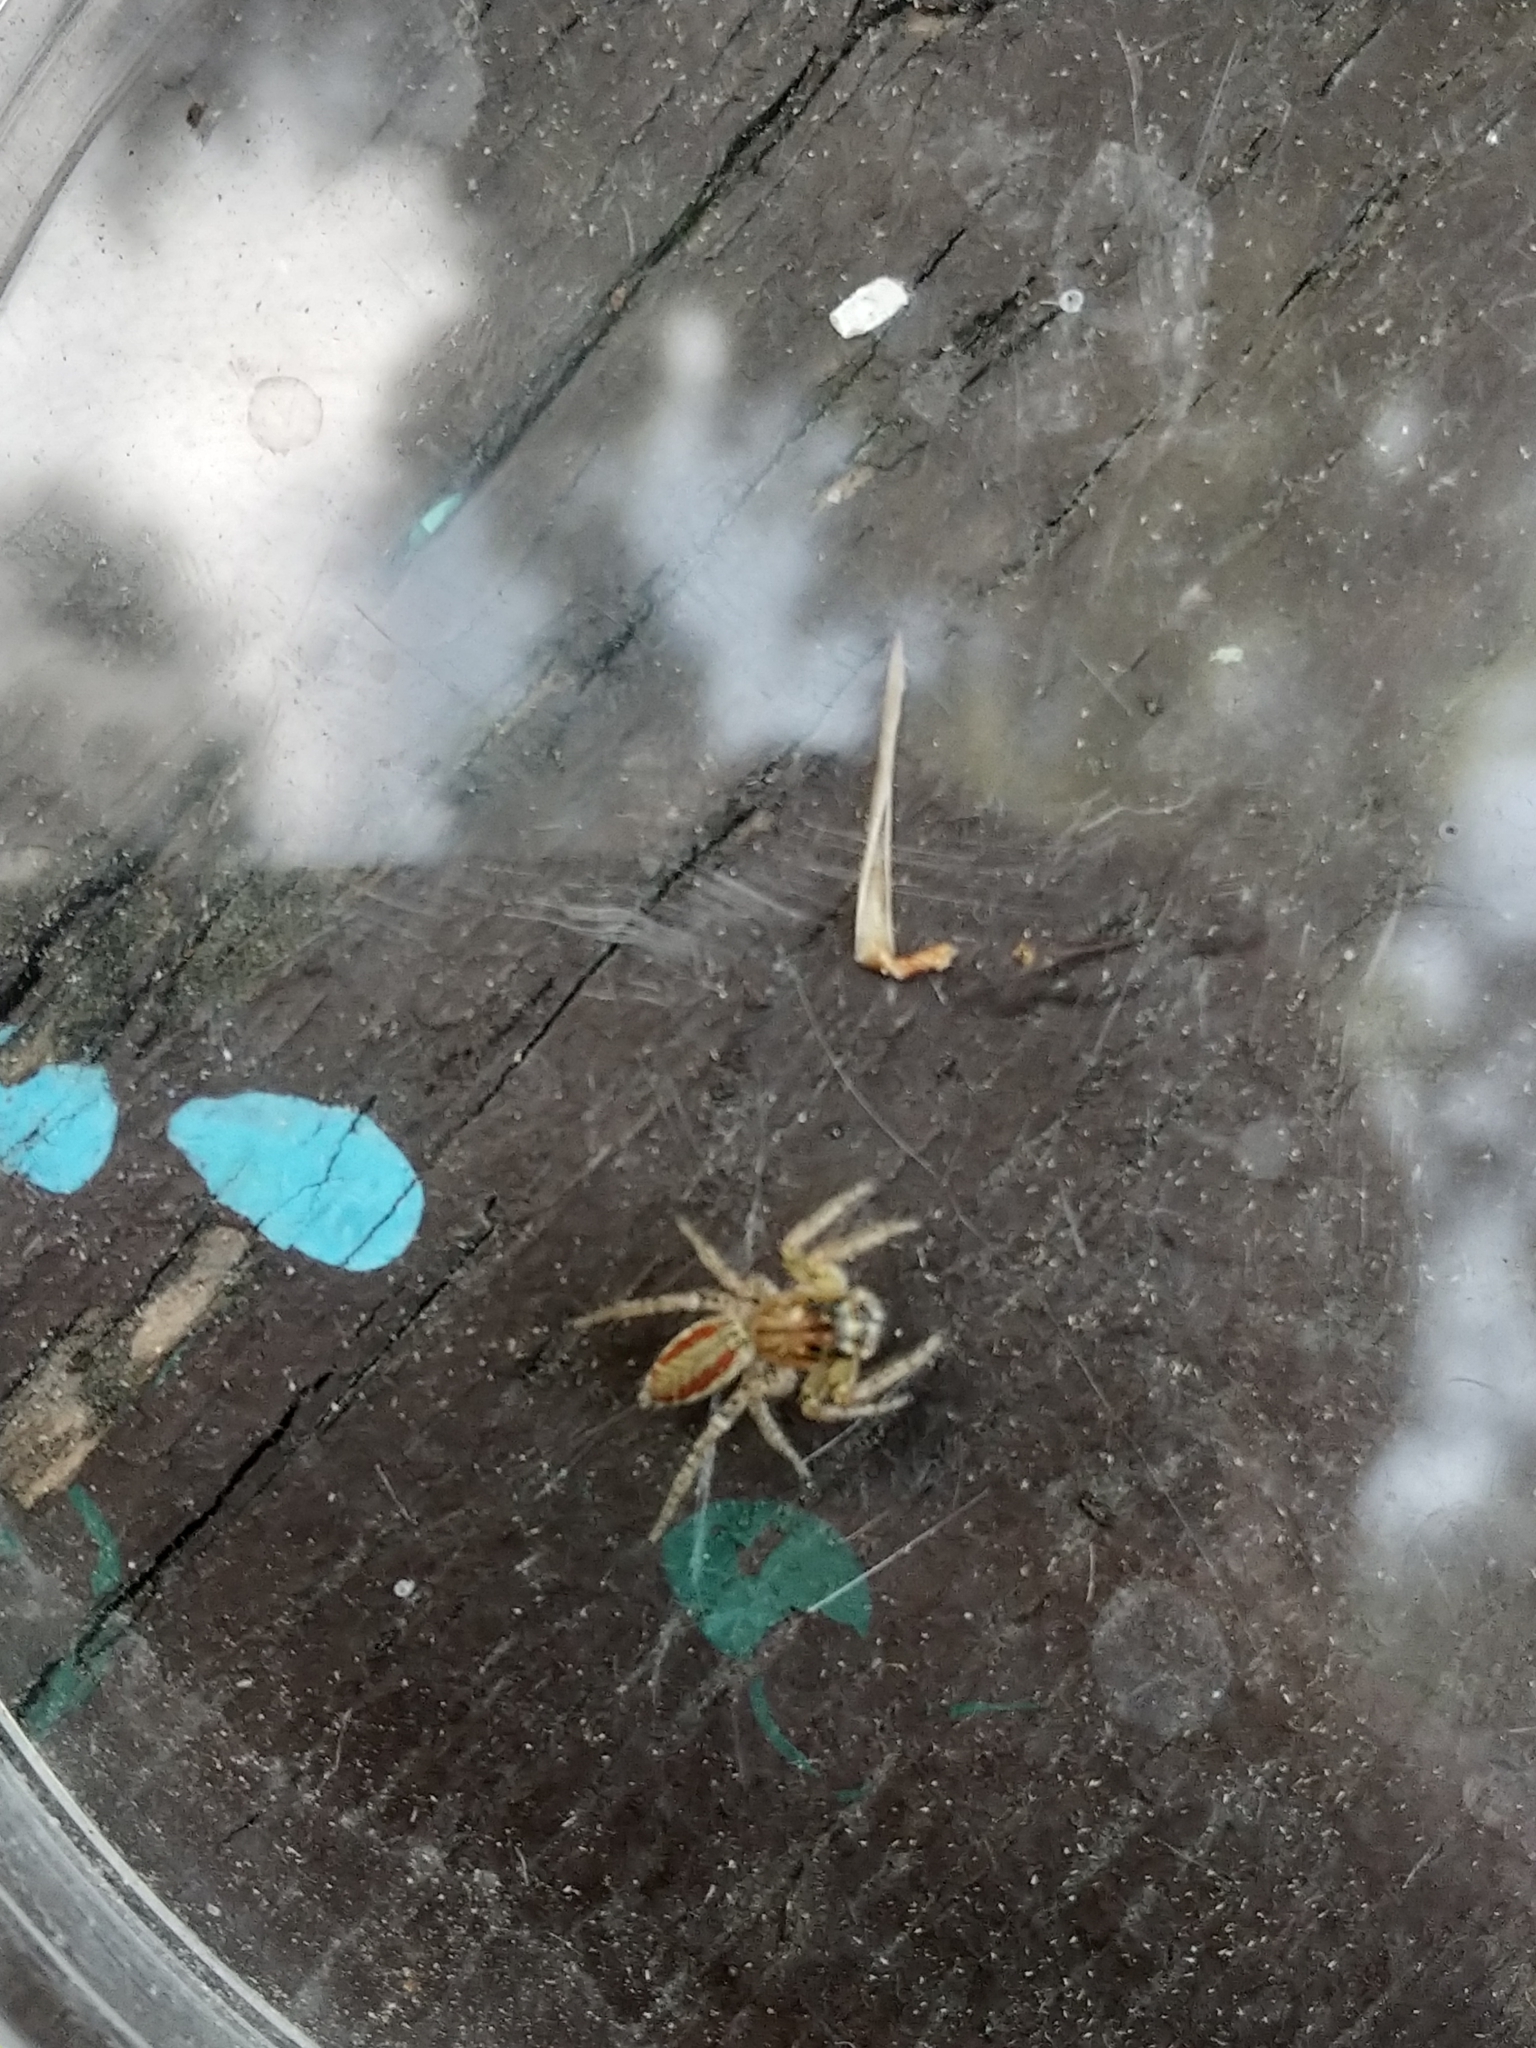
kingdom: Animalia
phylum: Arthropoda
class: Arachnida
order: Araneae
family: Salticidae
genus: Maevia
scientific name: Maevia inclemens
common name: Dimorphic jumper
